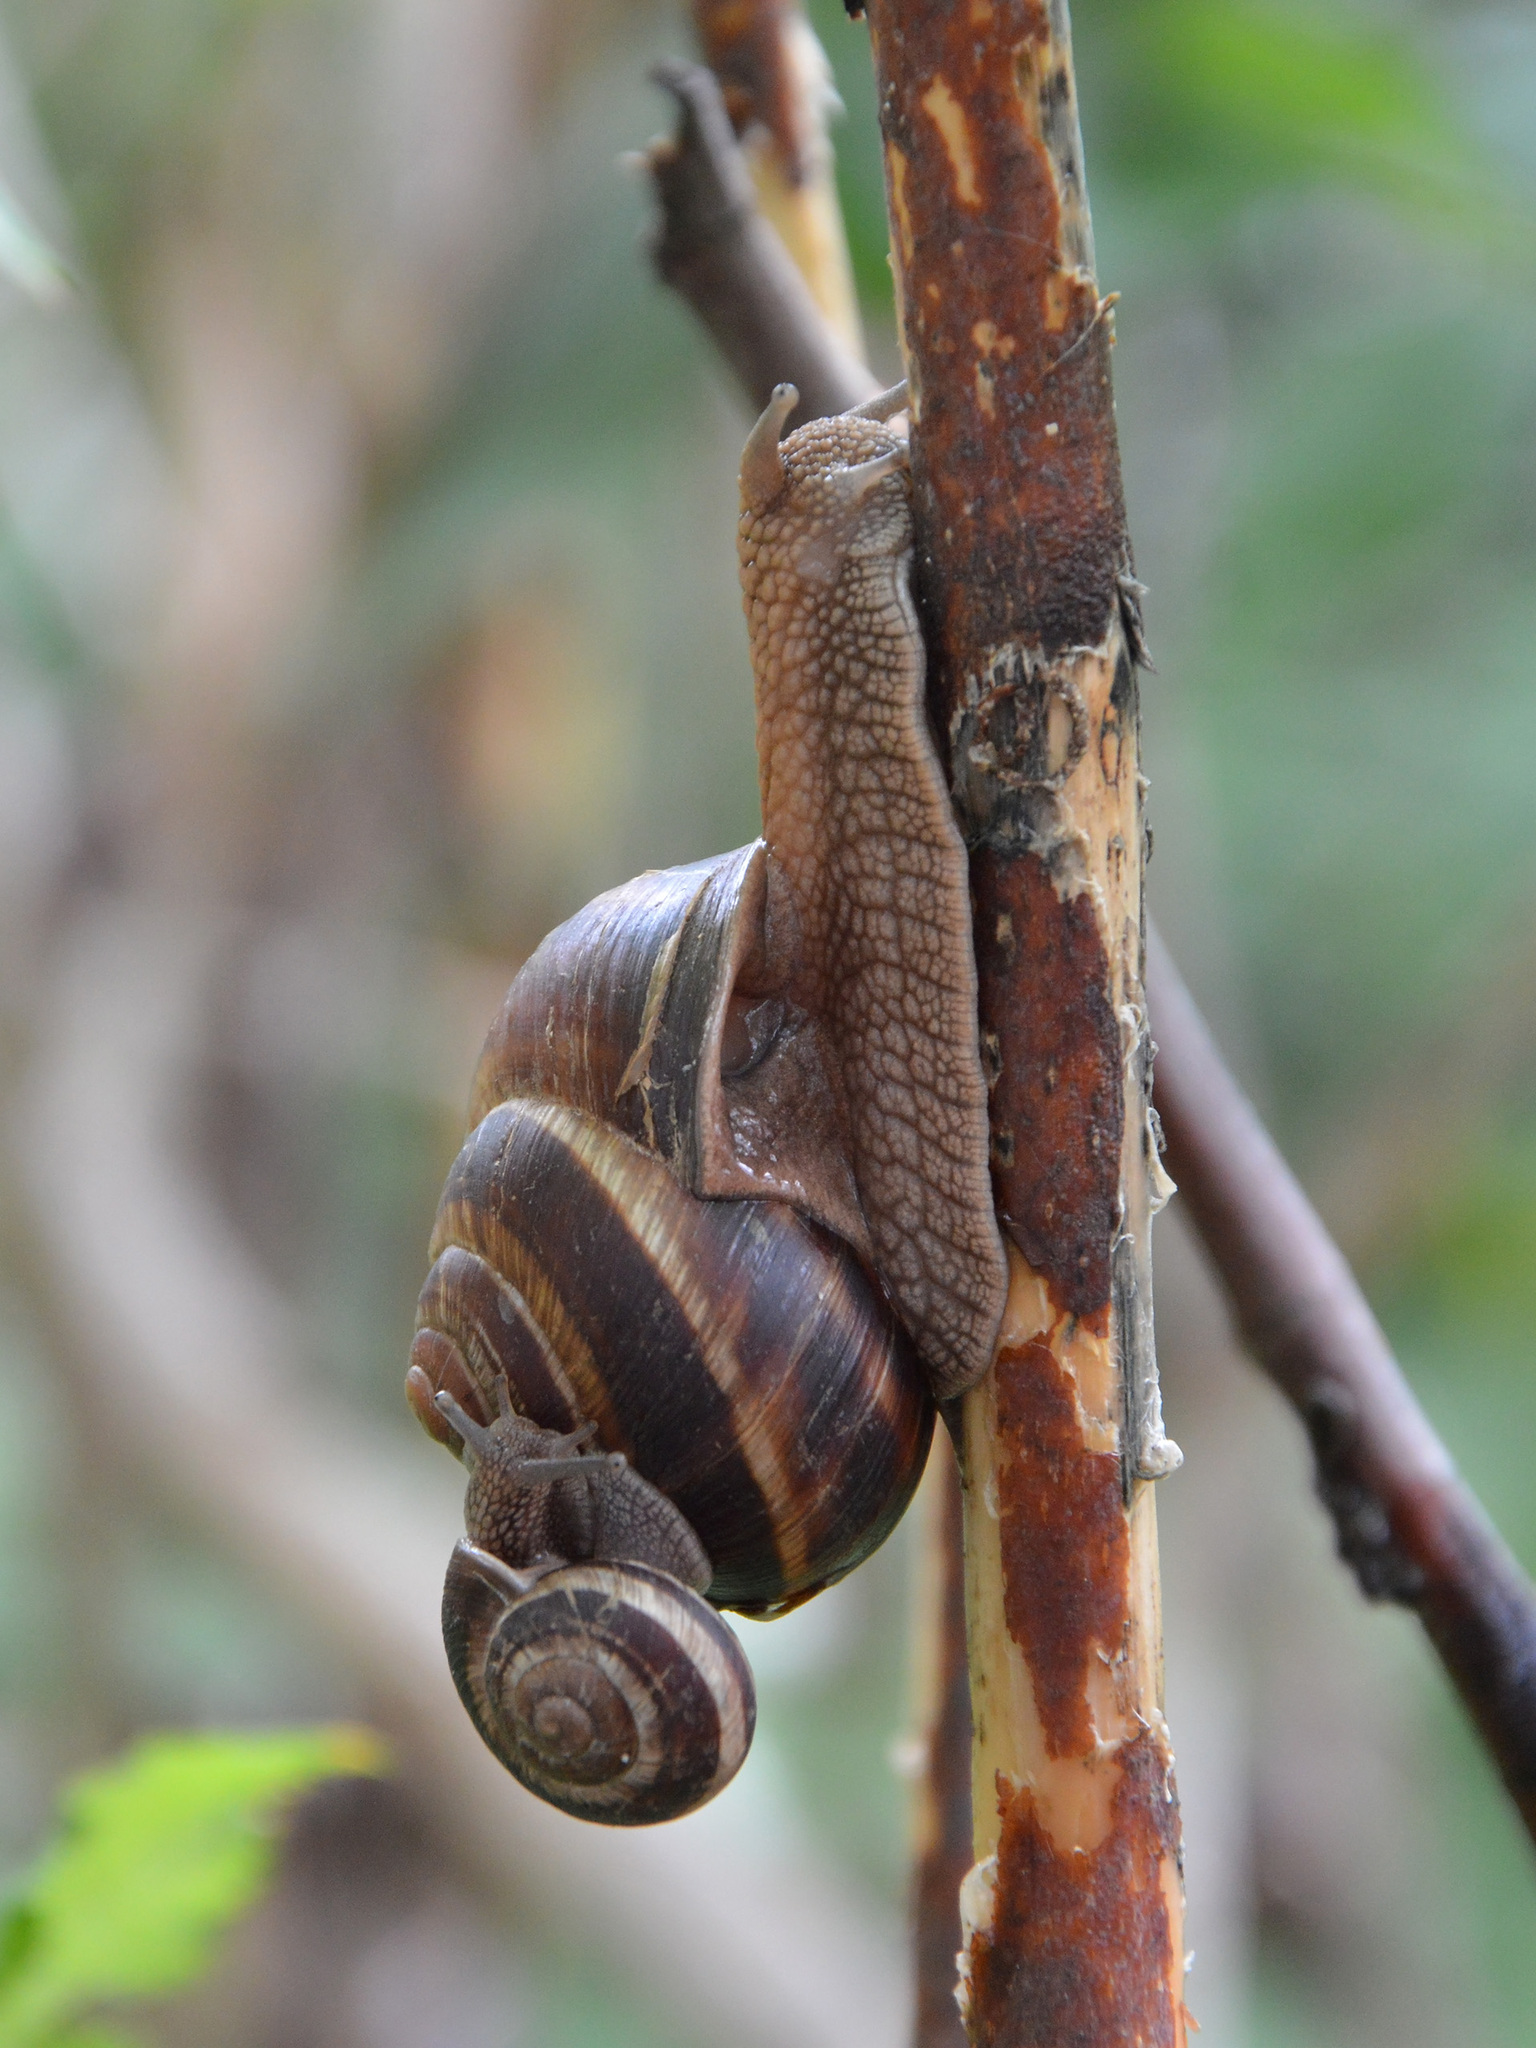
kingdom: Animalia
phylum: Mollusca
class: Gastropoda
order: Stylommatophora
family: Helicidae
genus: Helix
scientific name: Helix lucorum
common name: Turkish snail
